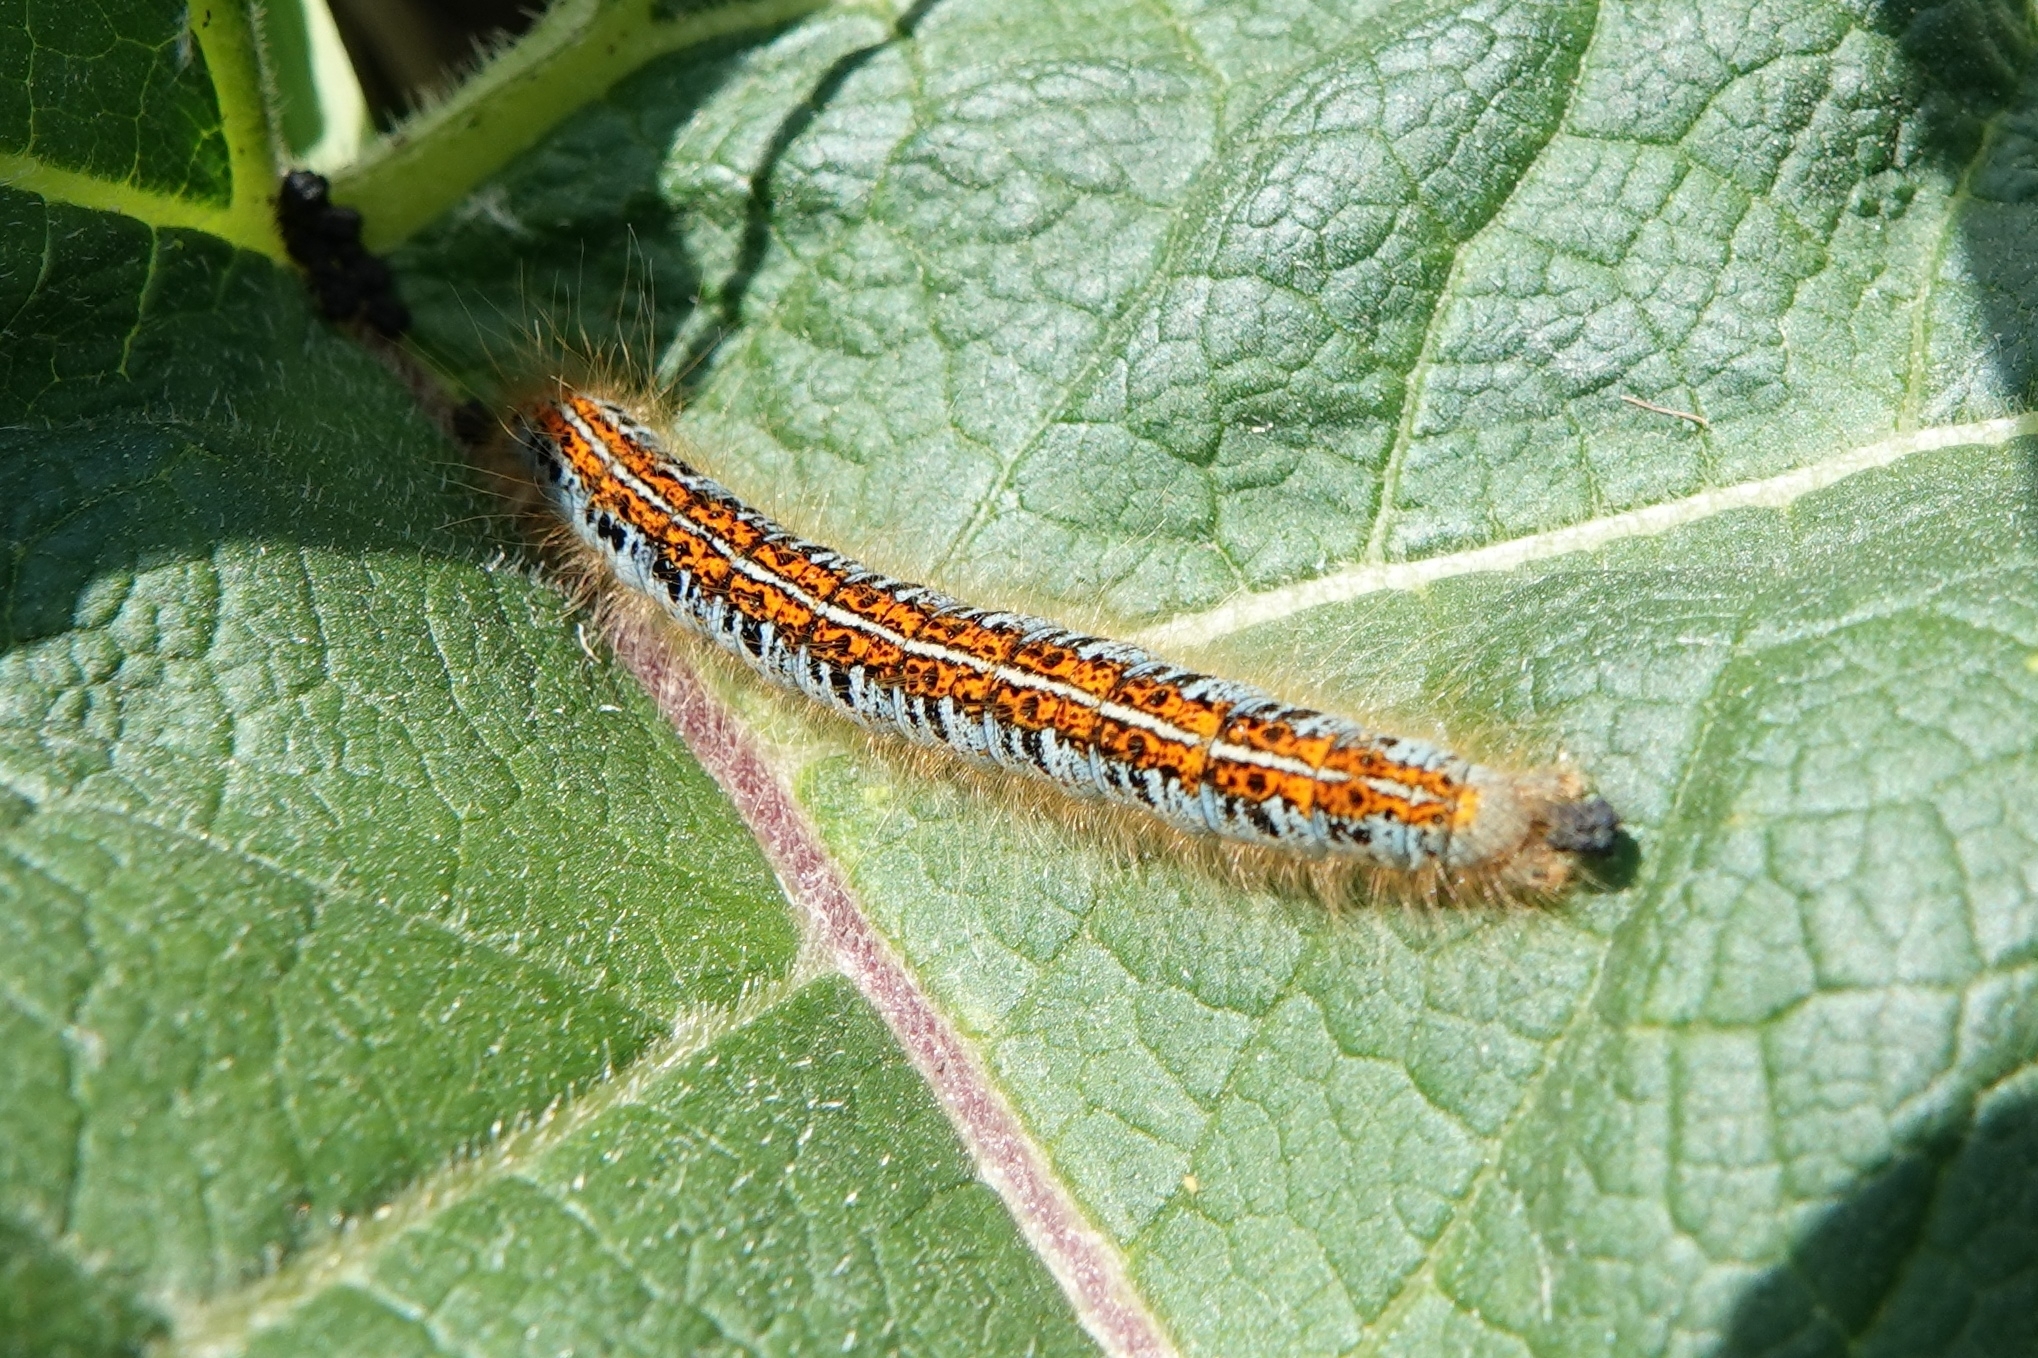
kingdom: Animalia
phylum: Arthropoda
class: Insecta
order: Lepidoptera
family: Lasiocampidae
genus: Malacosoma
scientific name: Malacosoma castrense
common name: Ground lackey
